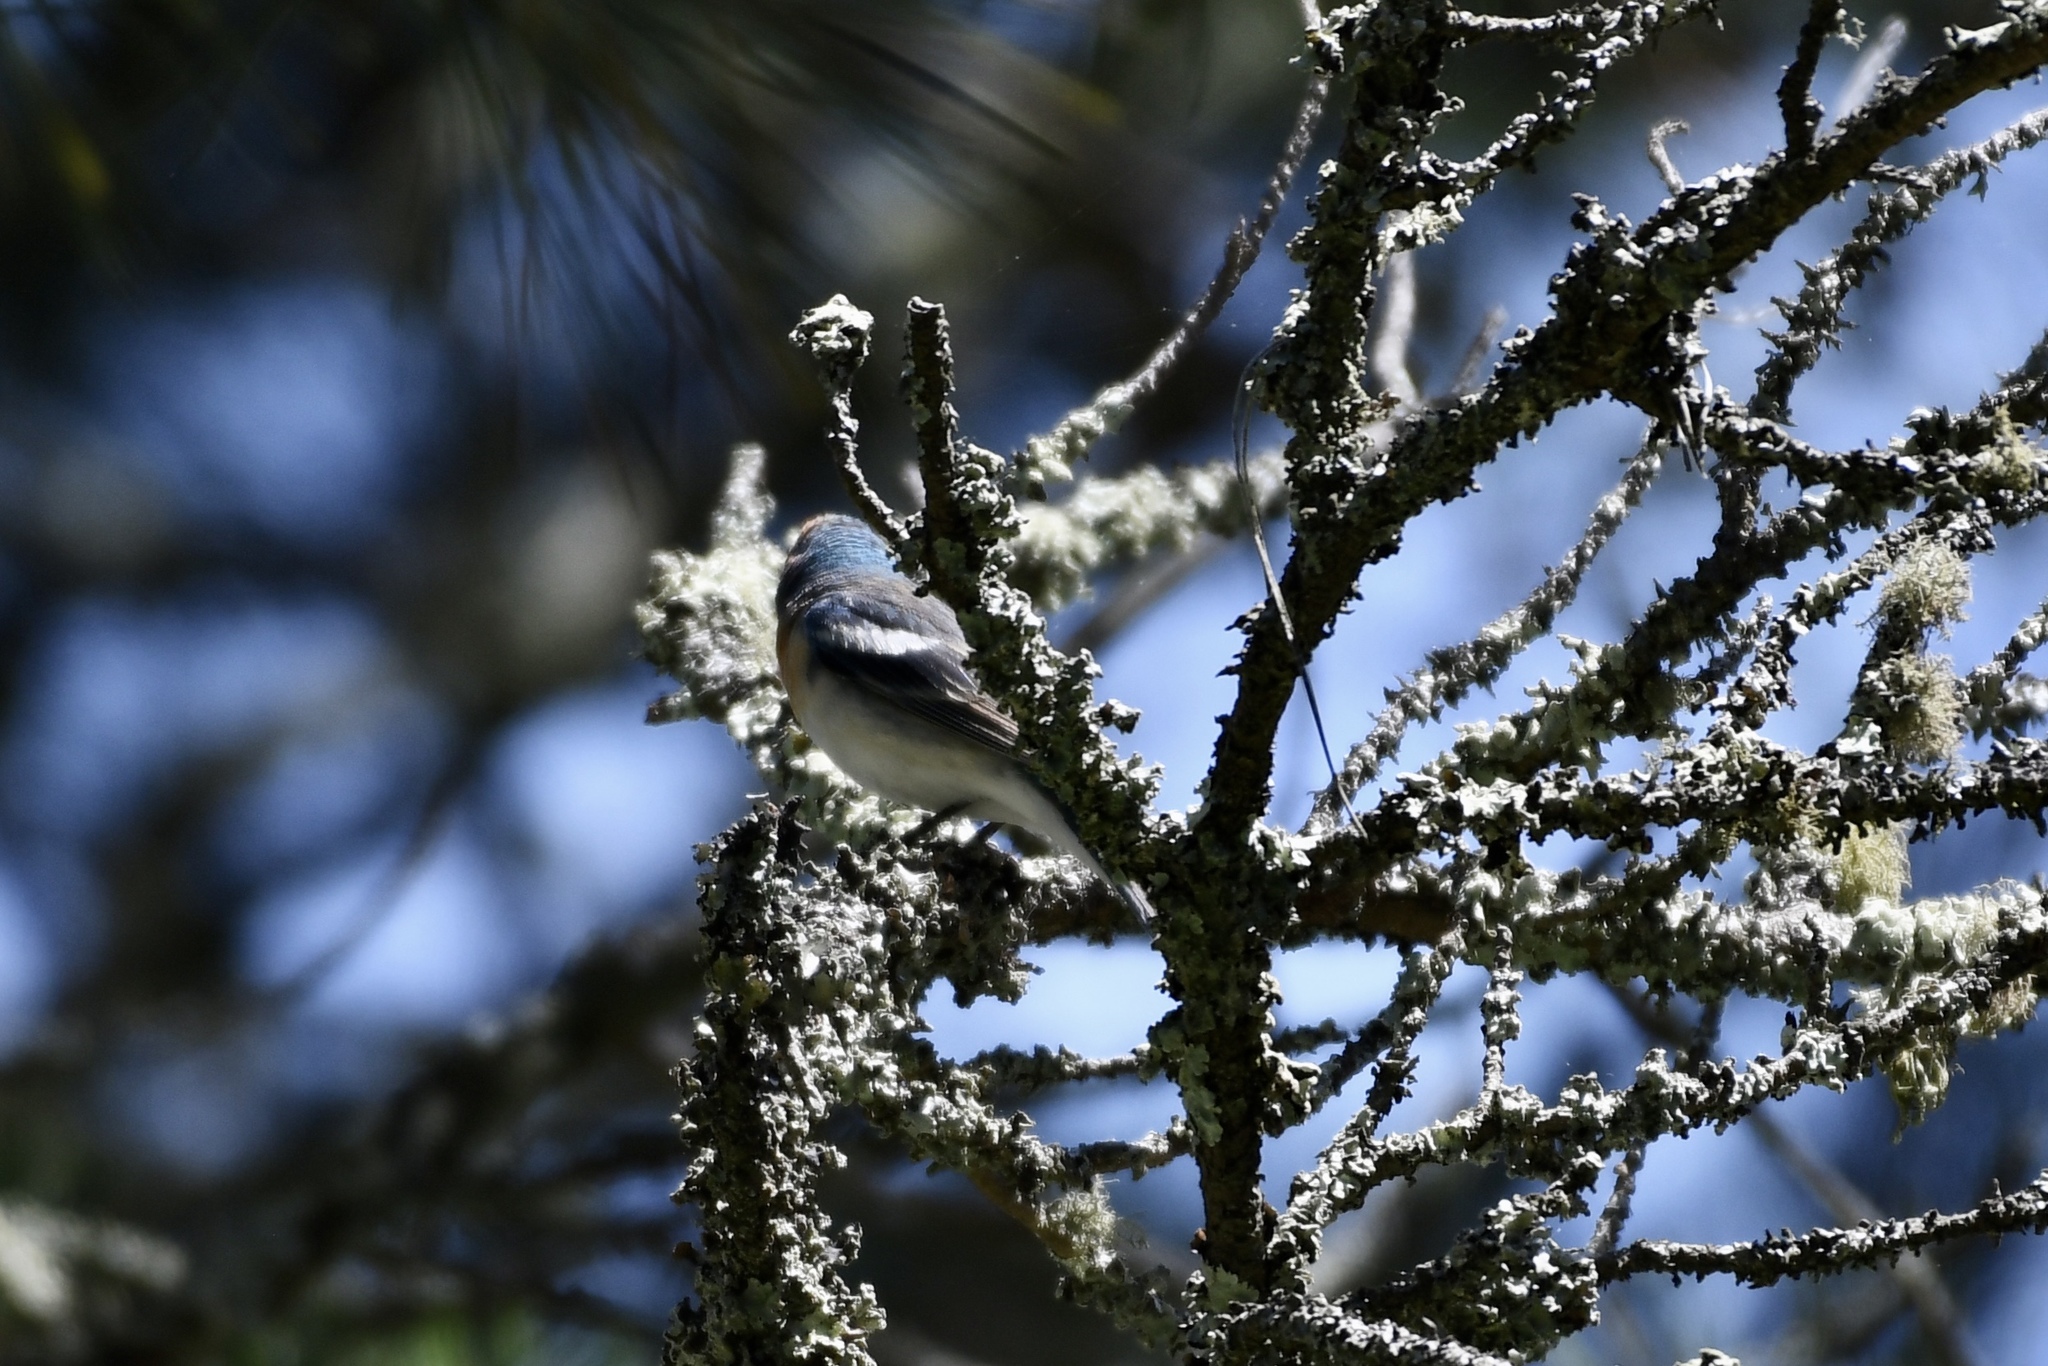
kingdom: Animalia
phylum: Chordata
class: Aves
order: Passeriformes
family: Cardinalidae
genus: Passerina
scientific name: Passerina amoena
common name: Lazuli bunting
